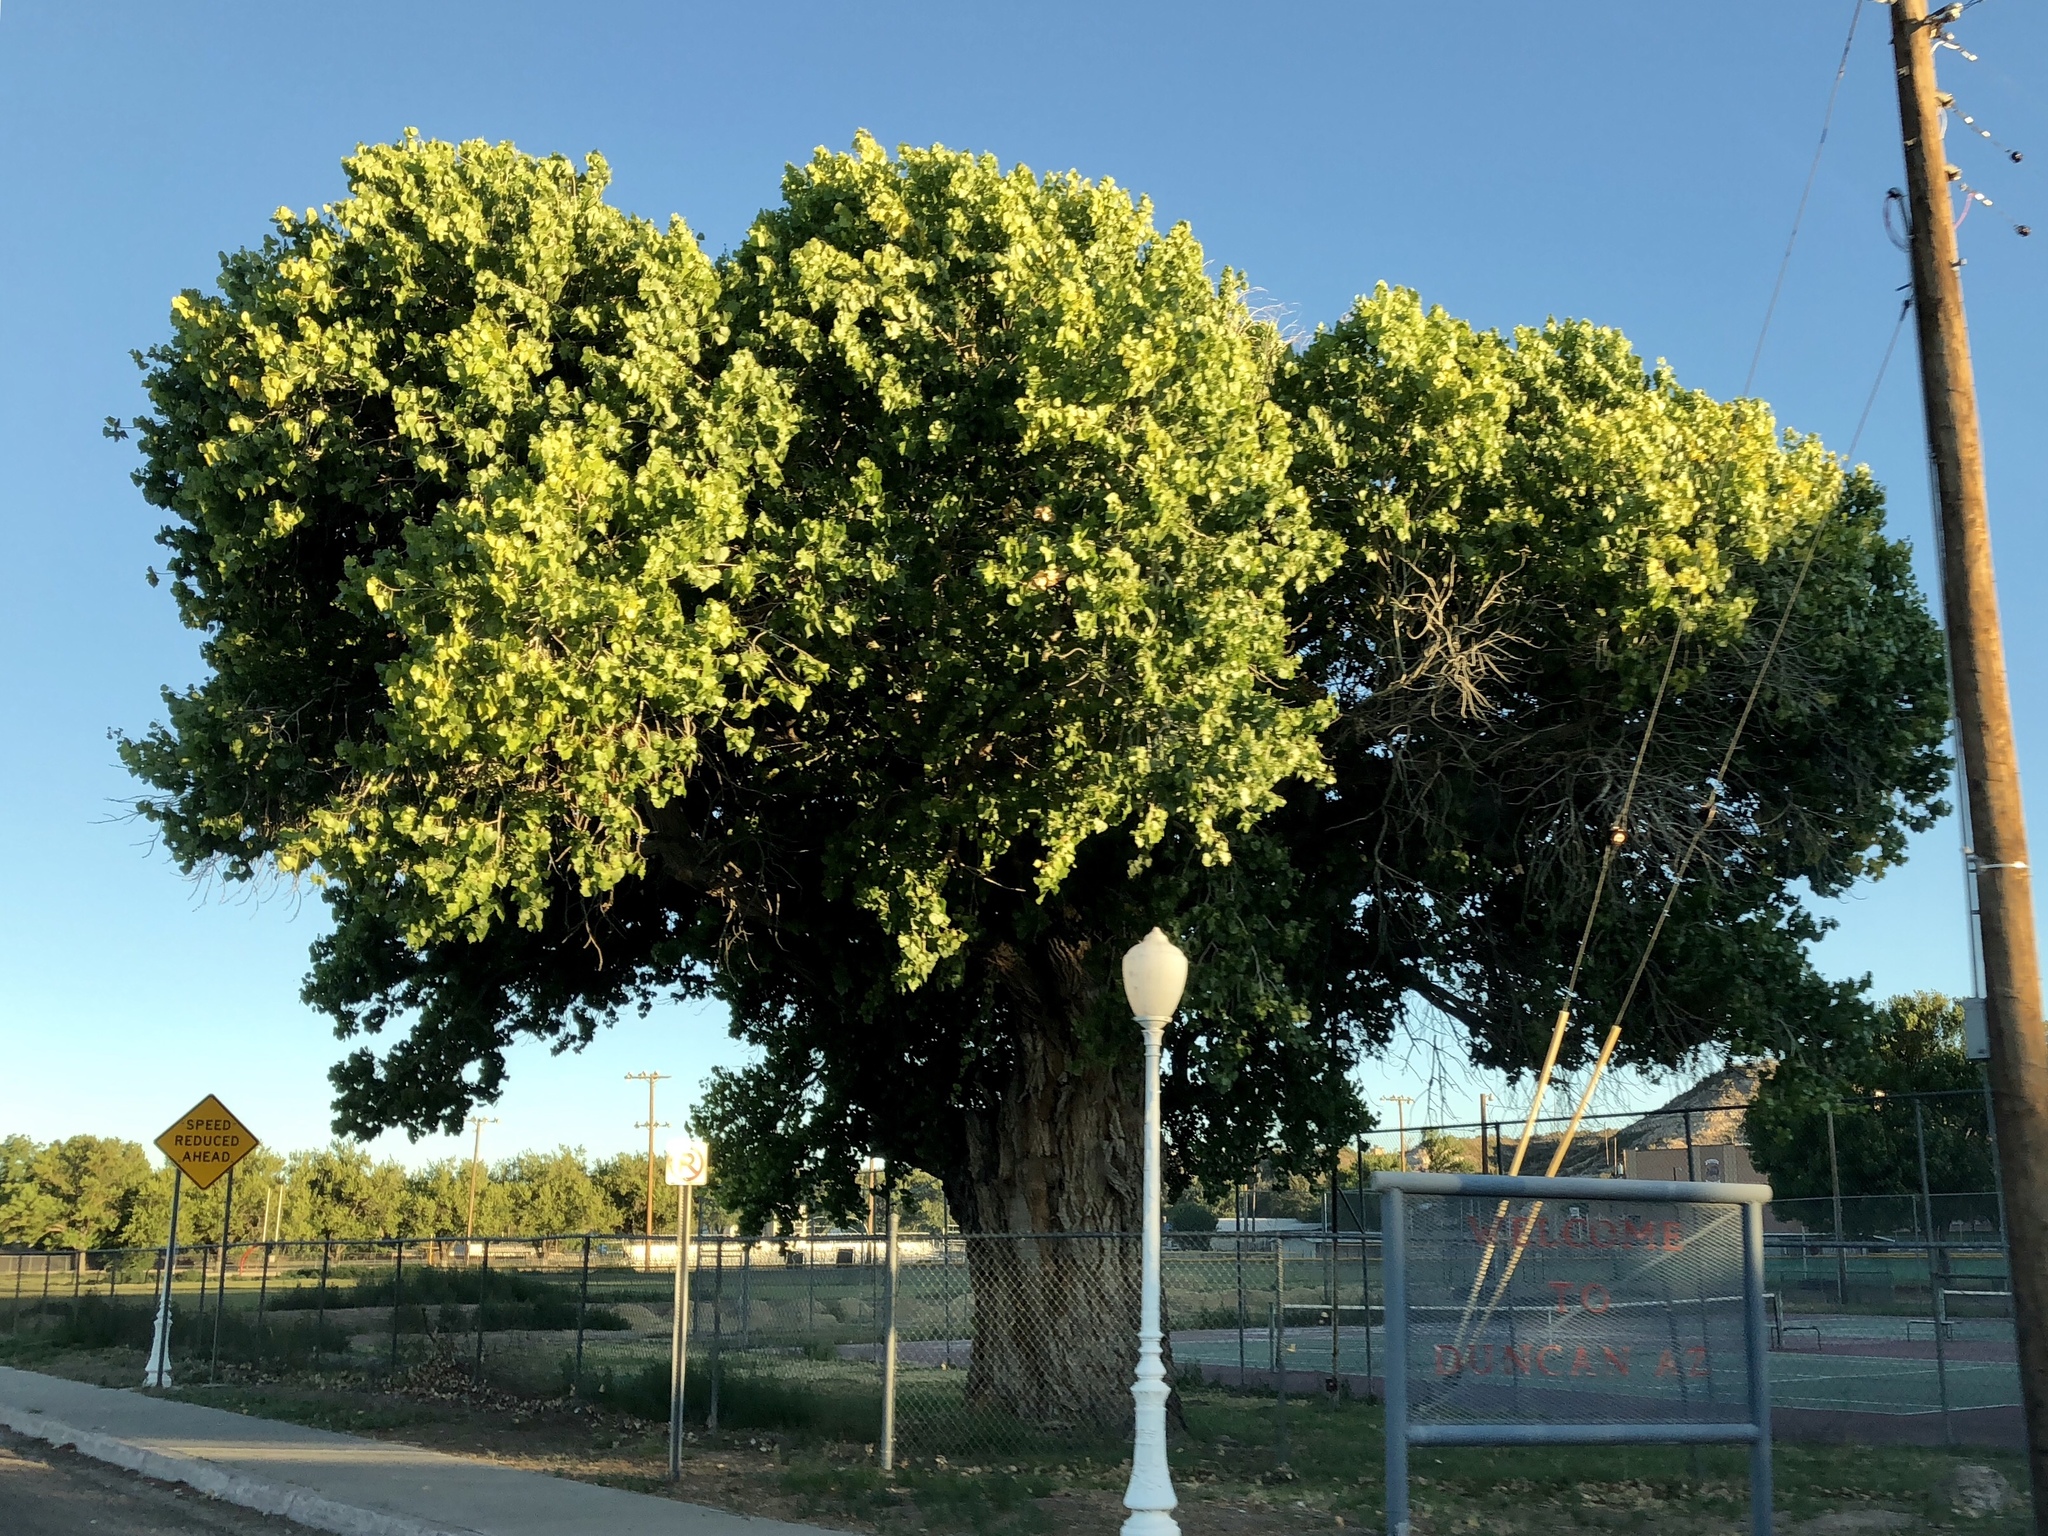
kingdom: Plantae
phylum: Tracheophyta
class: Magnoliopsida
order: Malpighiales
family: Salicaceae
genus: Populus
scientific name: Populus fremontii
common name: Fremont's cottonwood
